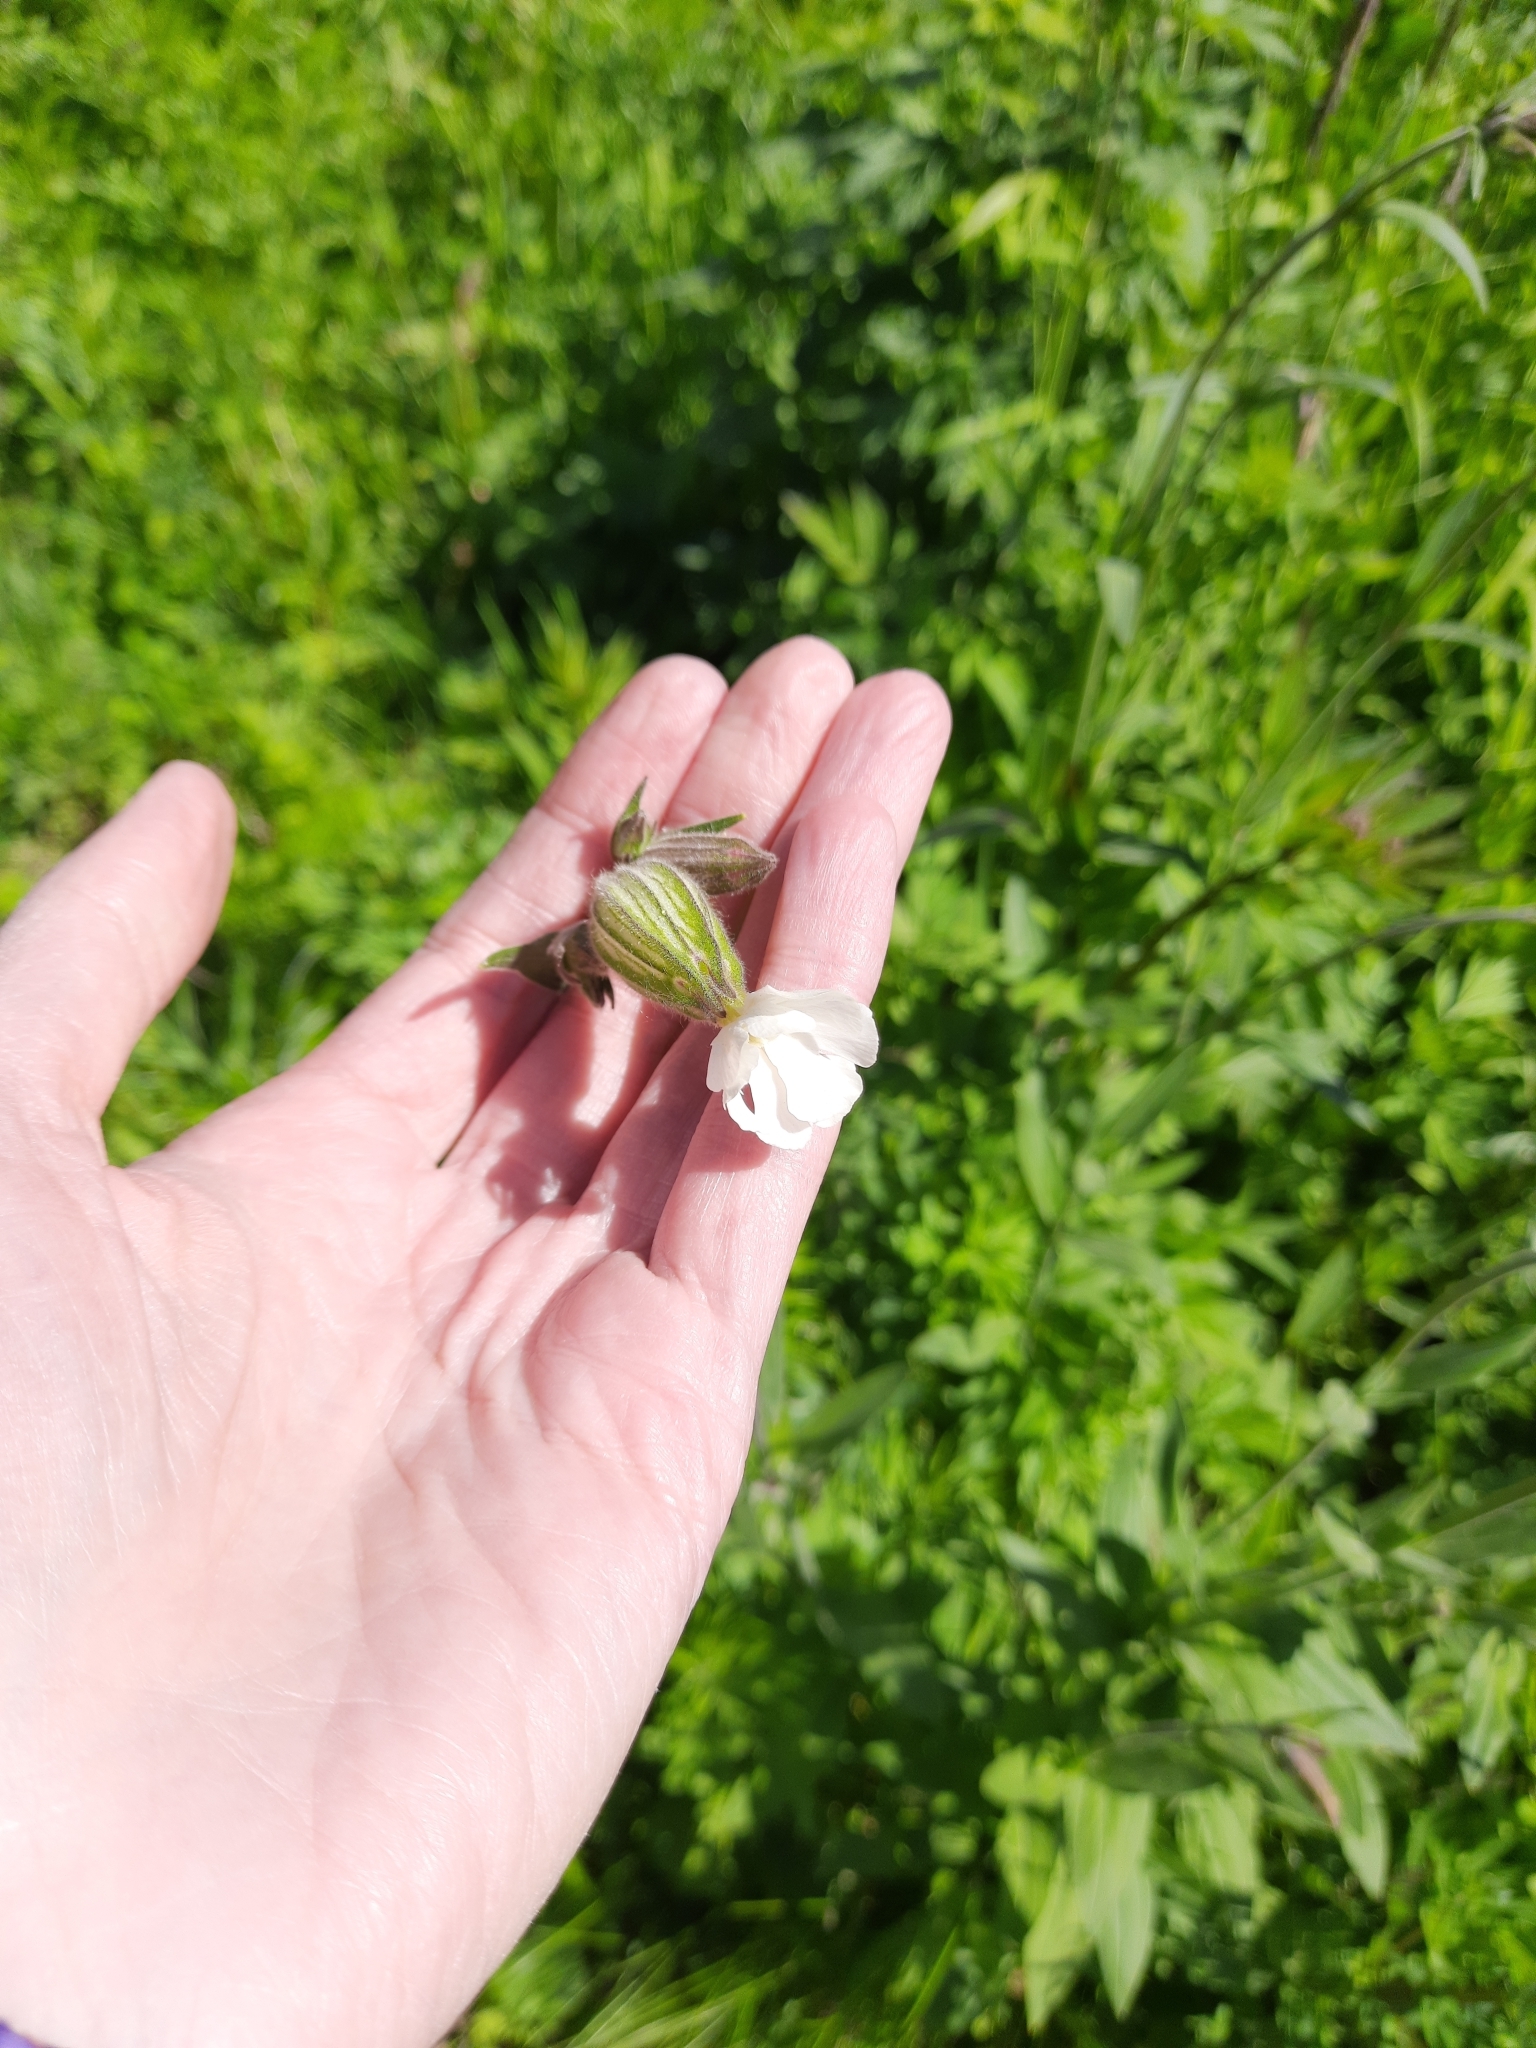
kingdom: Plantae
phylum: Tracheophyta
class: Magnoliopsida
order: Caryophyllales
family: Caryophyllaceae
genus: Silene
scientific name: Silene latifolia
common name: White campion
